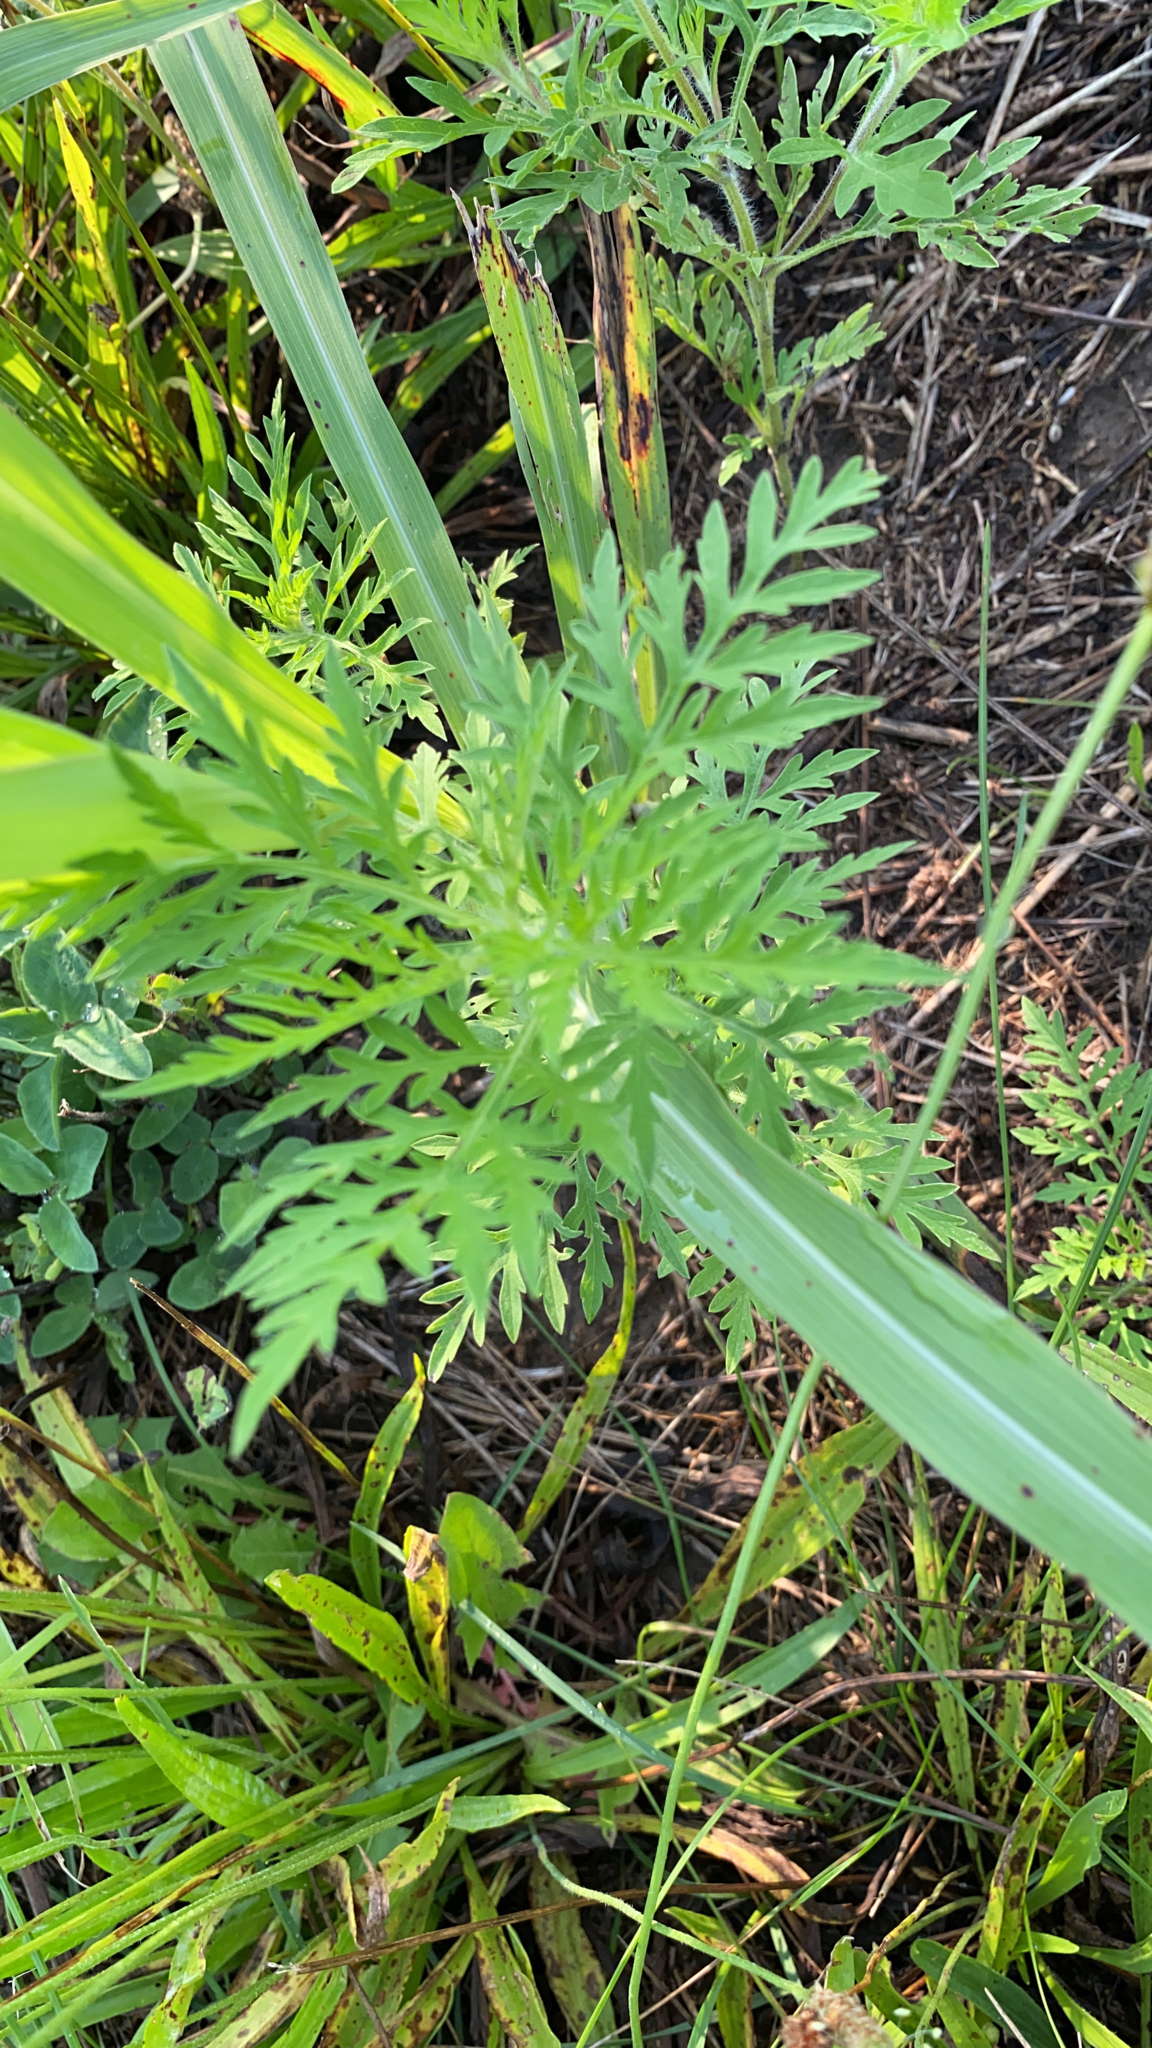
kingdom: Plantae
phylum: Tracheophyta
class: Magnoliopsida
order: Asterales
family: Asteraceae
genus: Ambrosia
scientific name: Ambrosia artemisiifolia
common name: Annual ragweed
